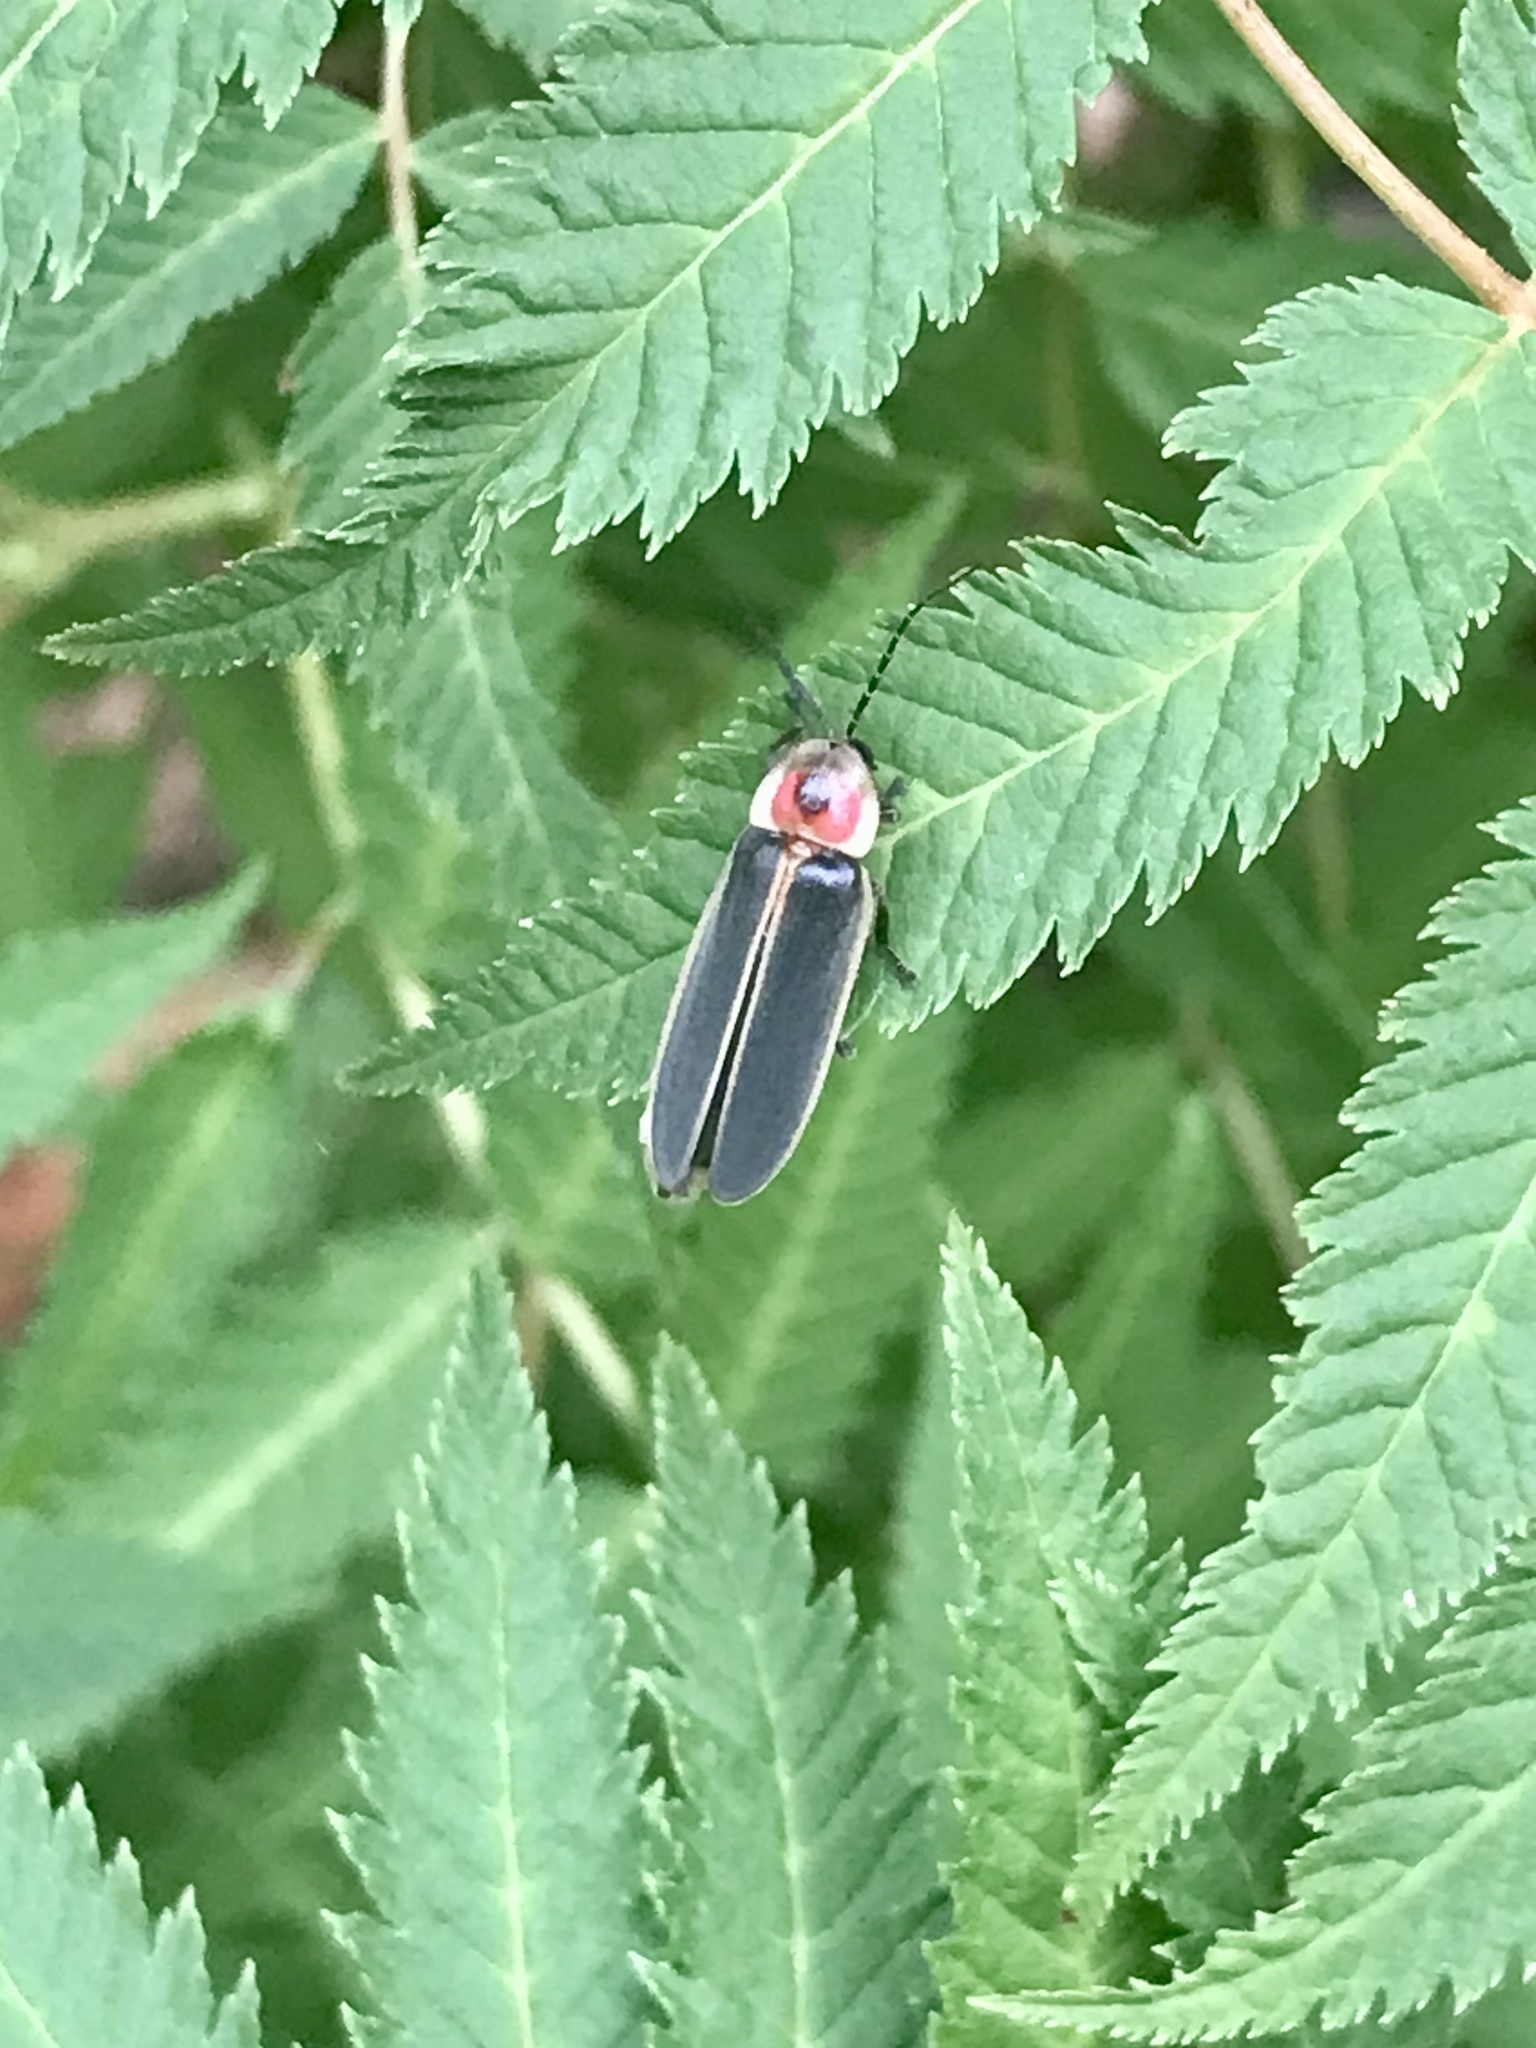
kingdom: Animalia
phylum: Arthropoda
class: Insecta
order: Coleoptera
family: Lampyridae
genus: Photinus
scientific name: Photinus pyralis
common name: Big dipper firefly
